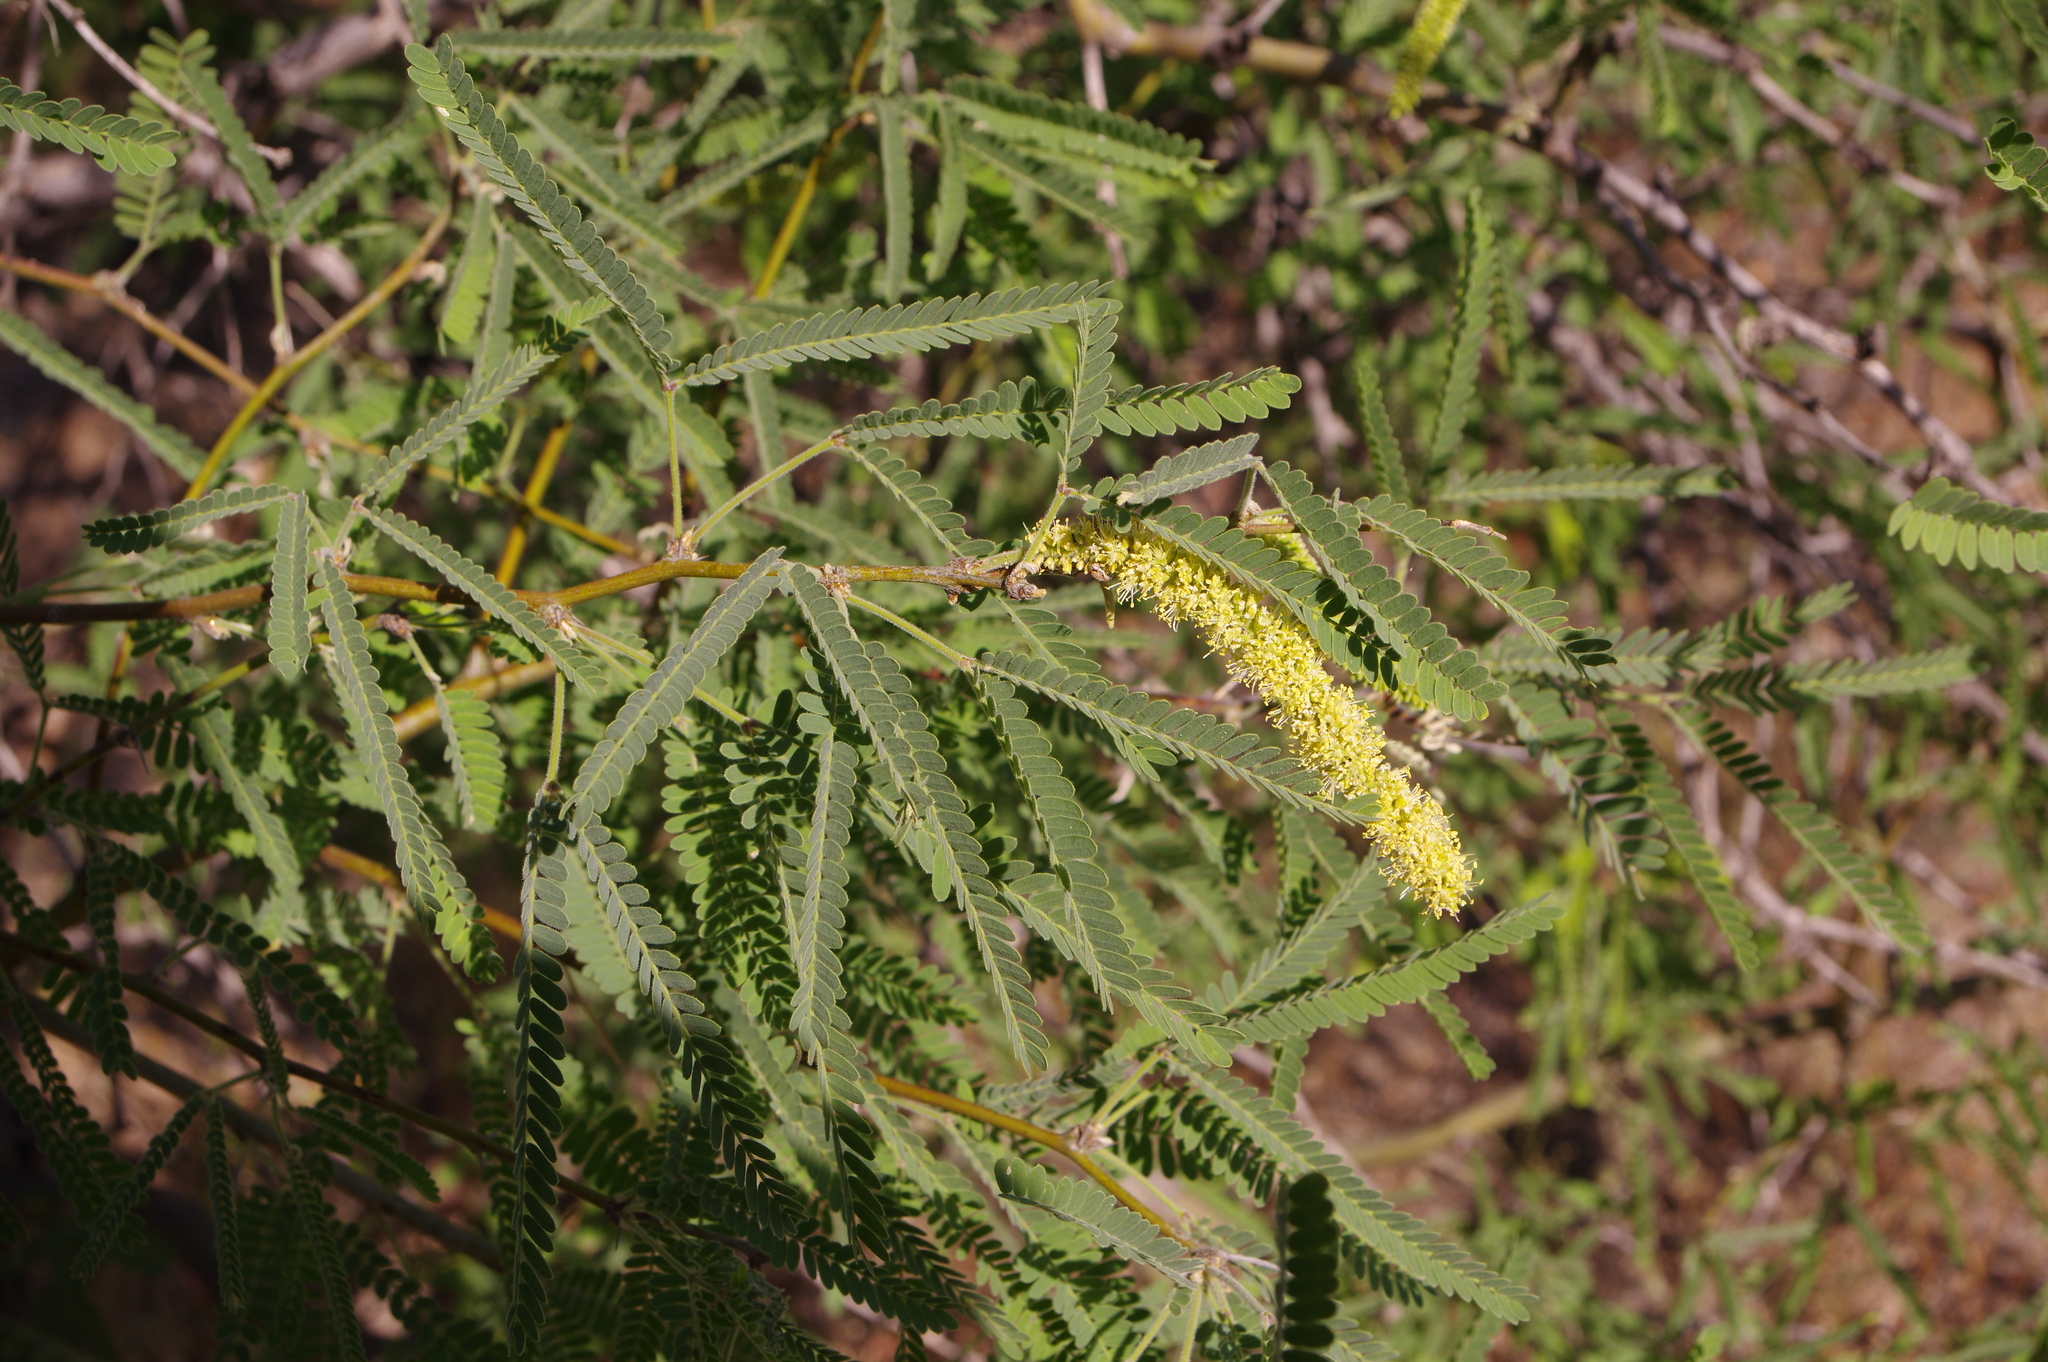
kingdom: Plantae
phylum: Tracheophyta
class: Magnoliopsida
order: Fabales
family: Fabaceae
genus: Prosopis
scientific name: Prosopis velutina
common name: Velvet mesquite
